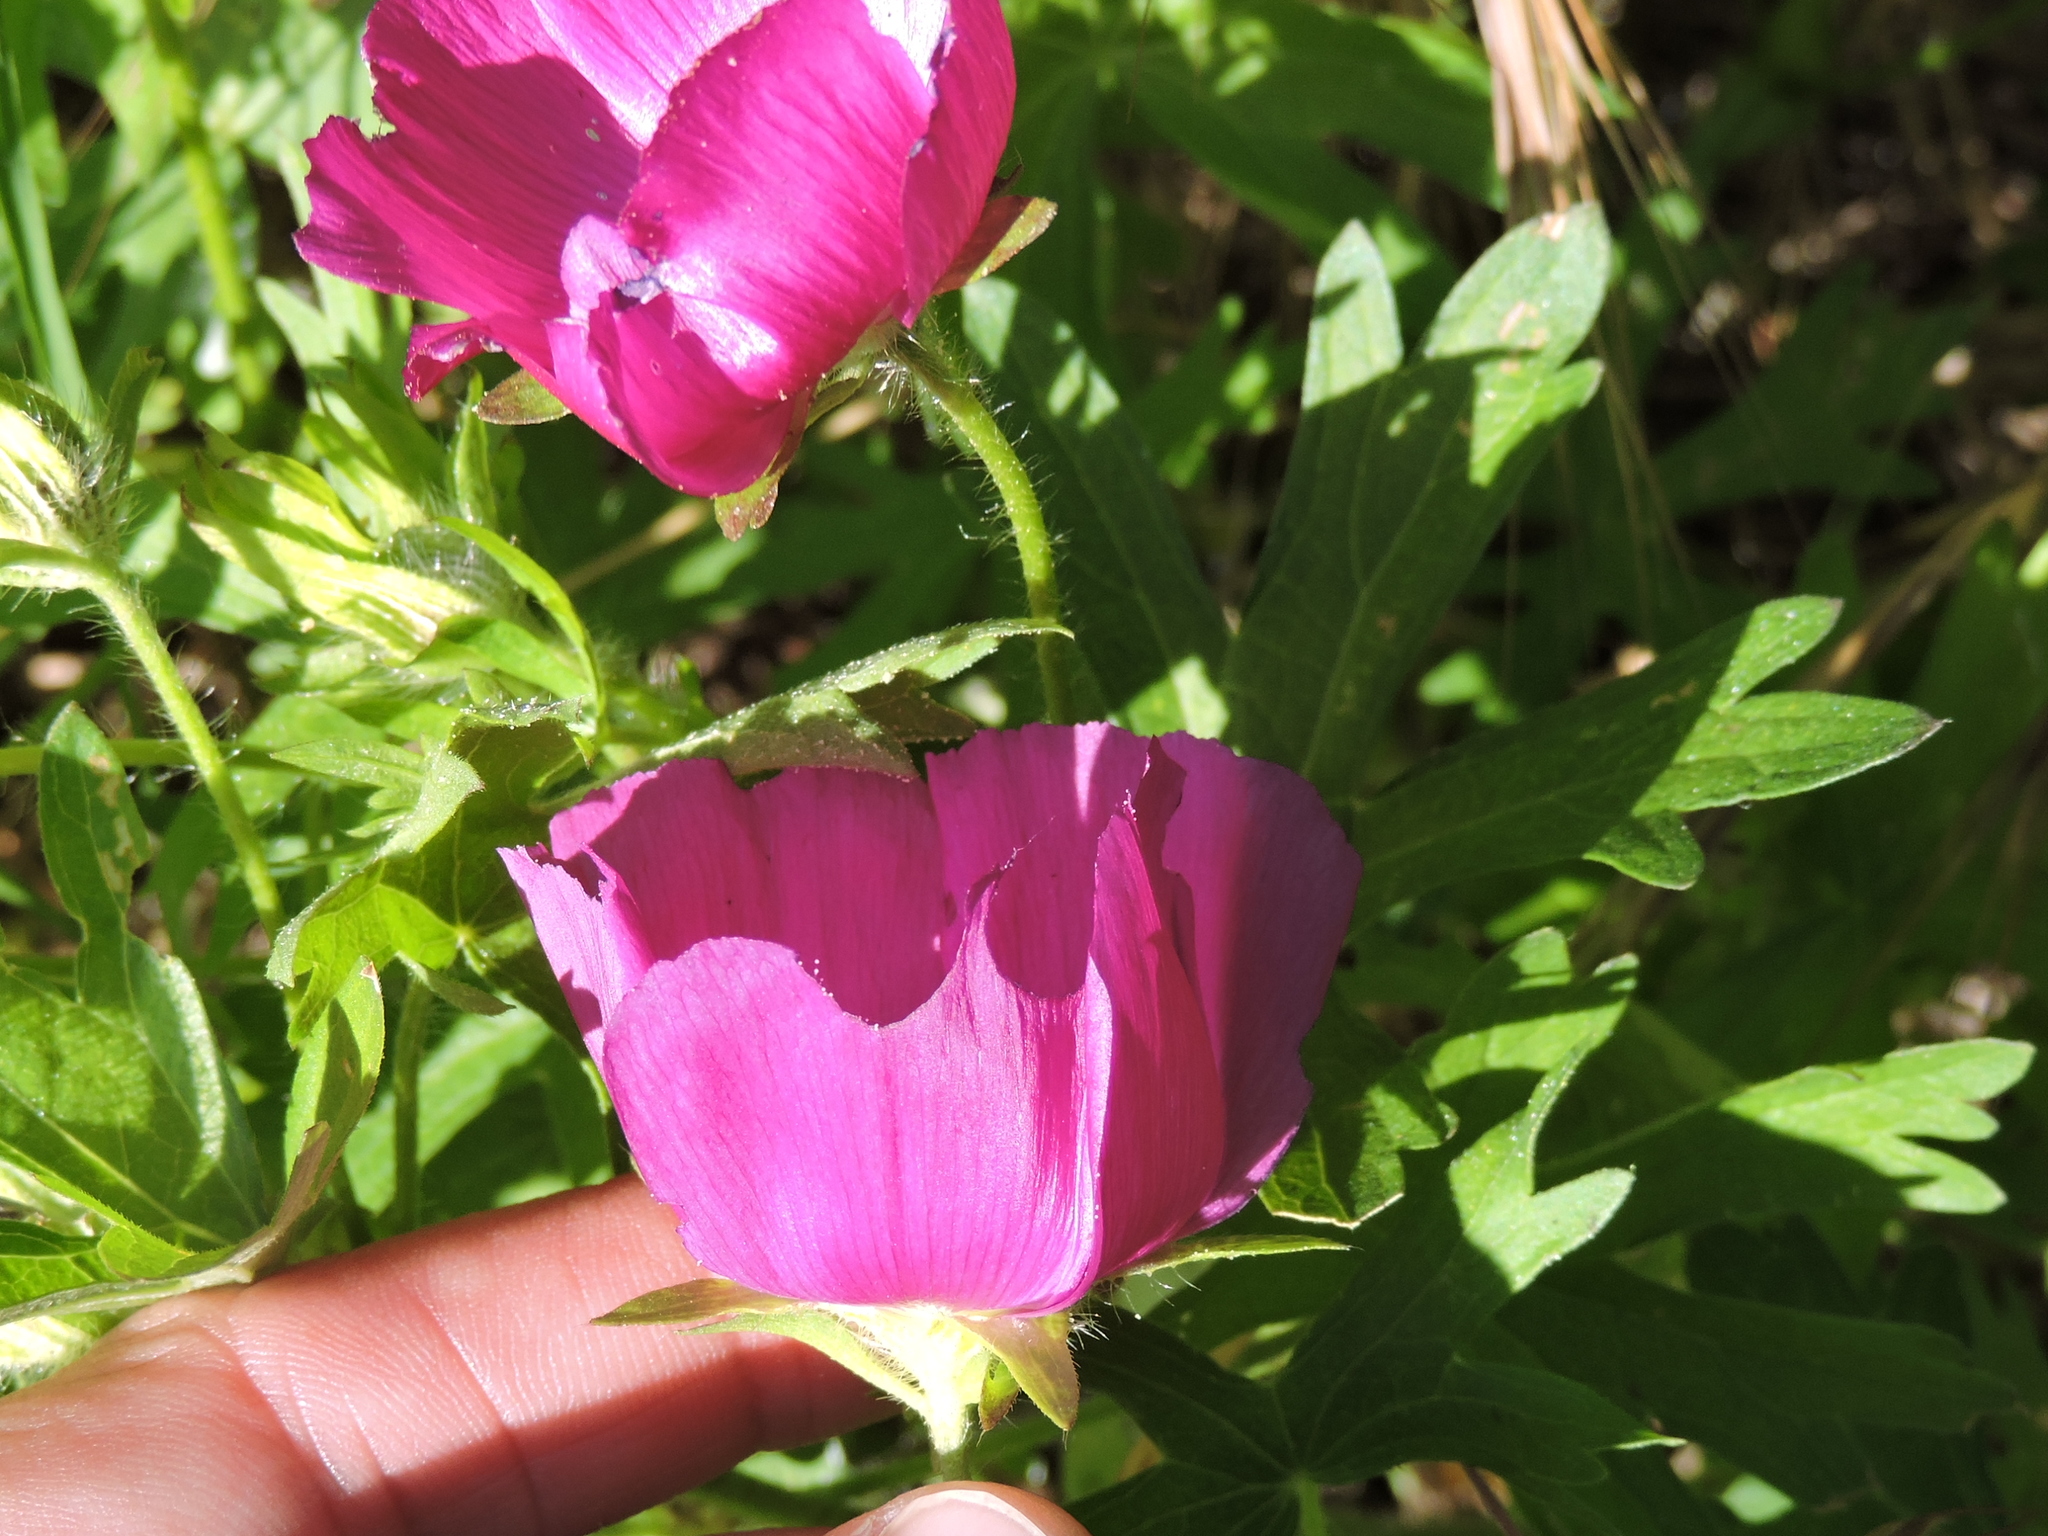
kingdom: Plantae
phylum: Tracheophyta
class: Magnoliopsida
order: Malvales
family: Malvaceae
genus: Callirhoe
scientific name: Callirhoe involucrata
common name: Purple poppy-mallow
